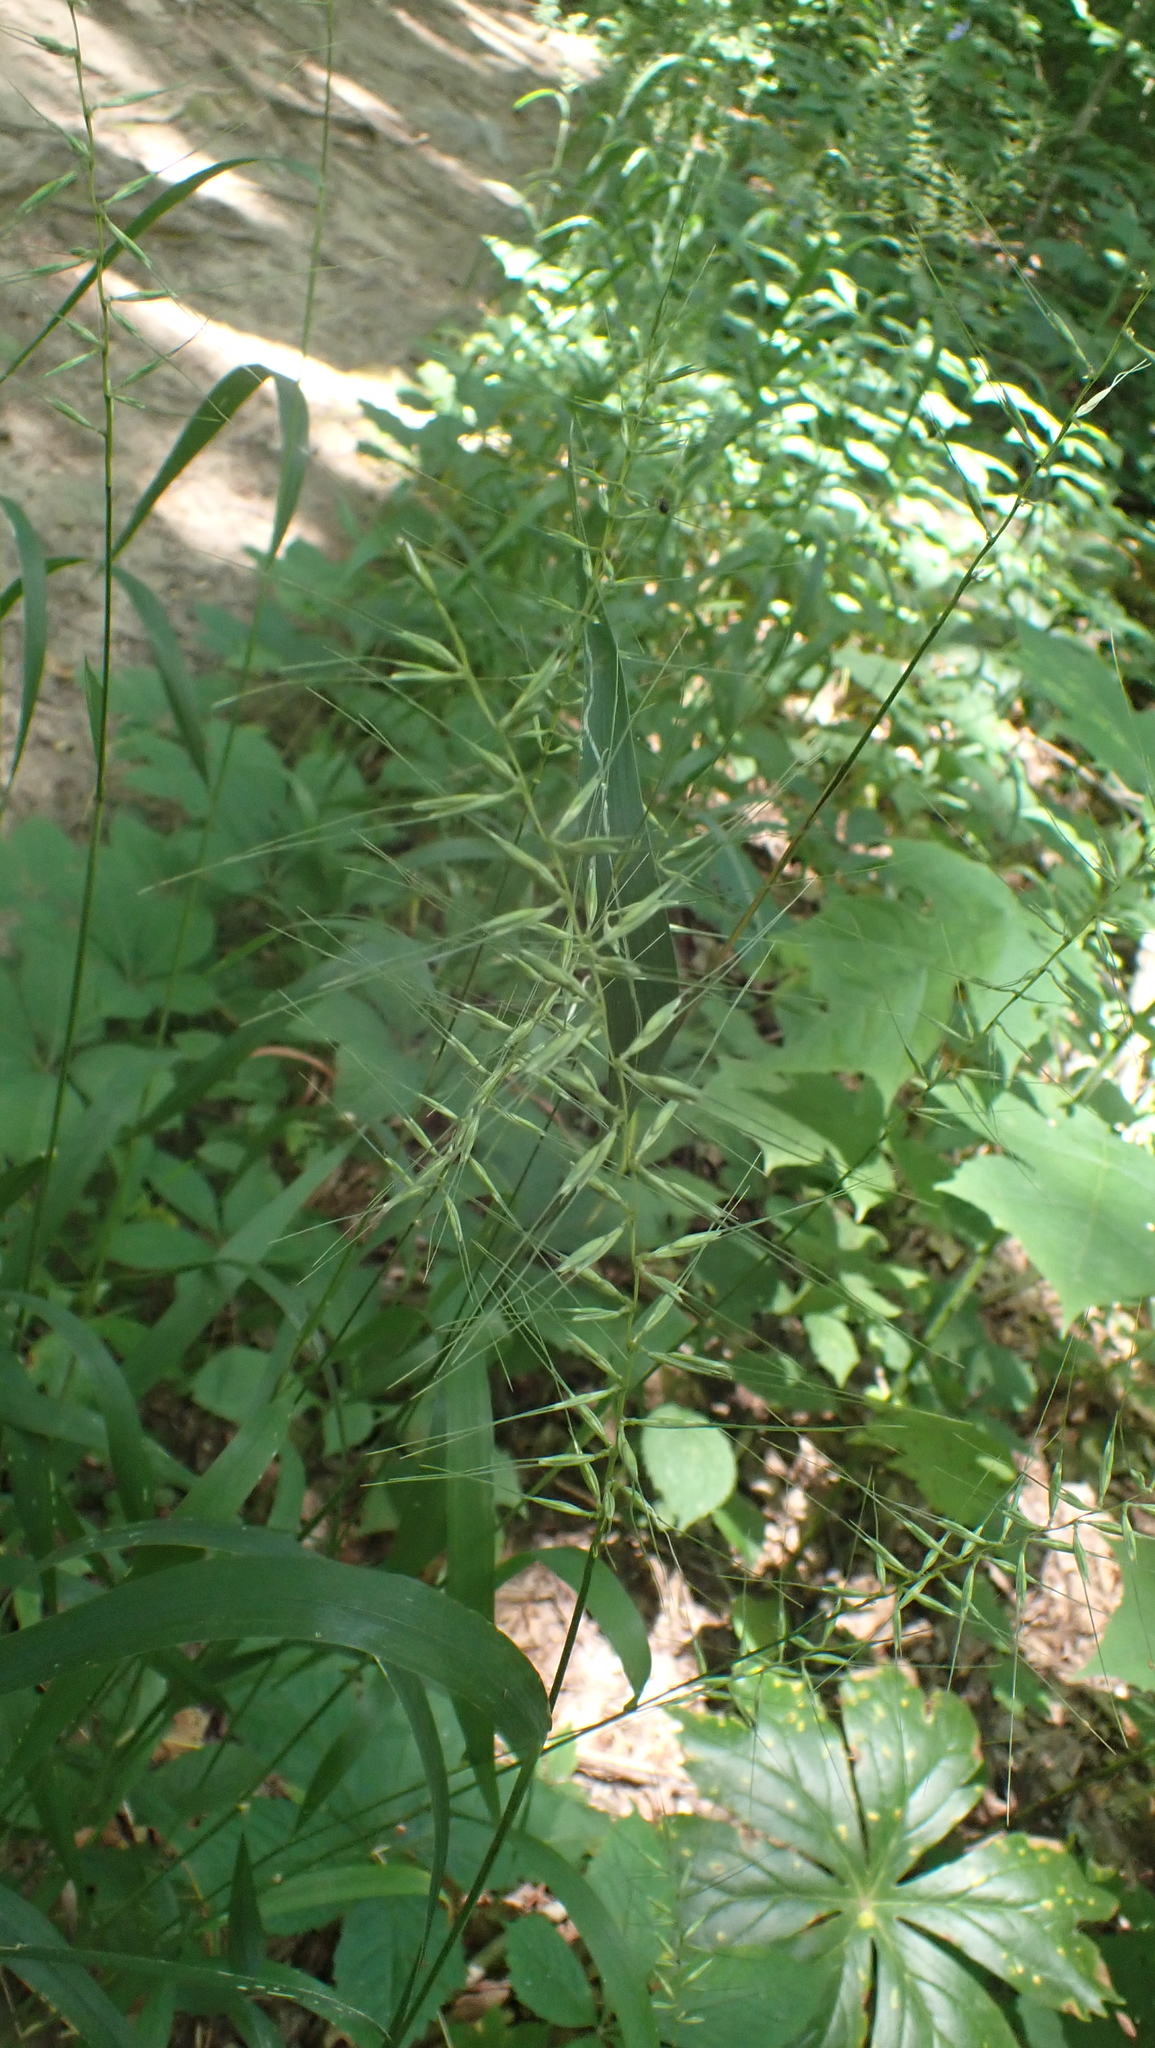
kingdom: Plantae
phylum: Tracheophyta
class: Liliopsida
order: Poales
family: Poaceae
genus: Elymus
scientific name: Elymus hystrix
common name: Bottlebrush grass
